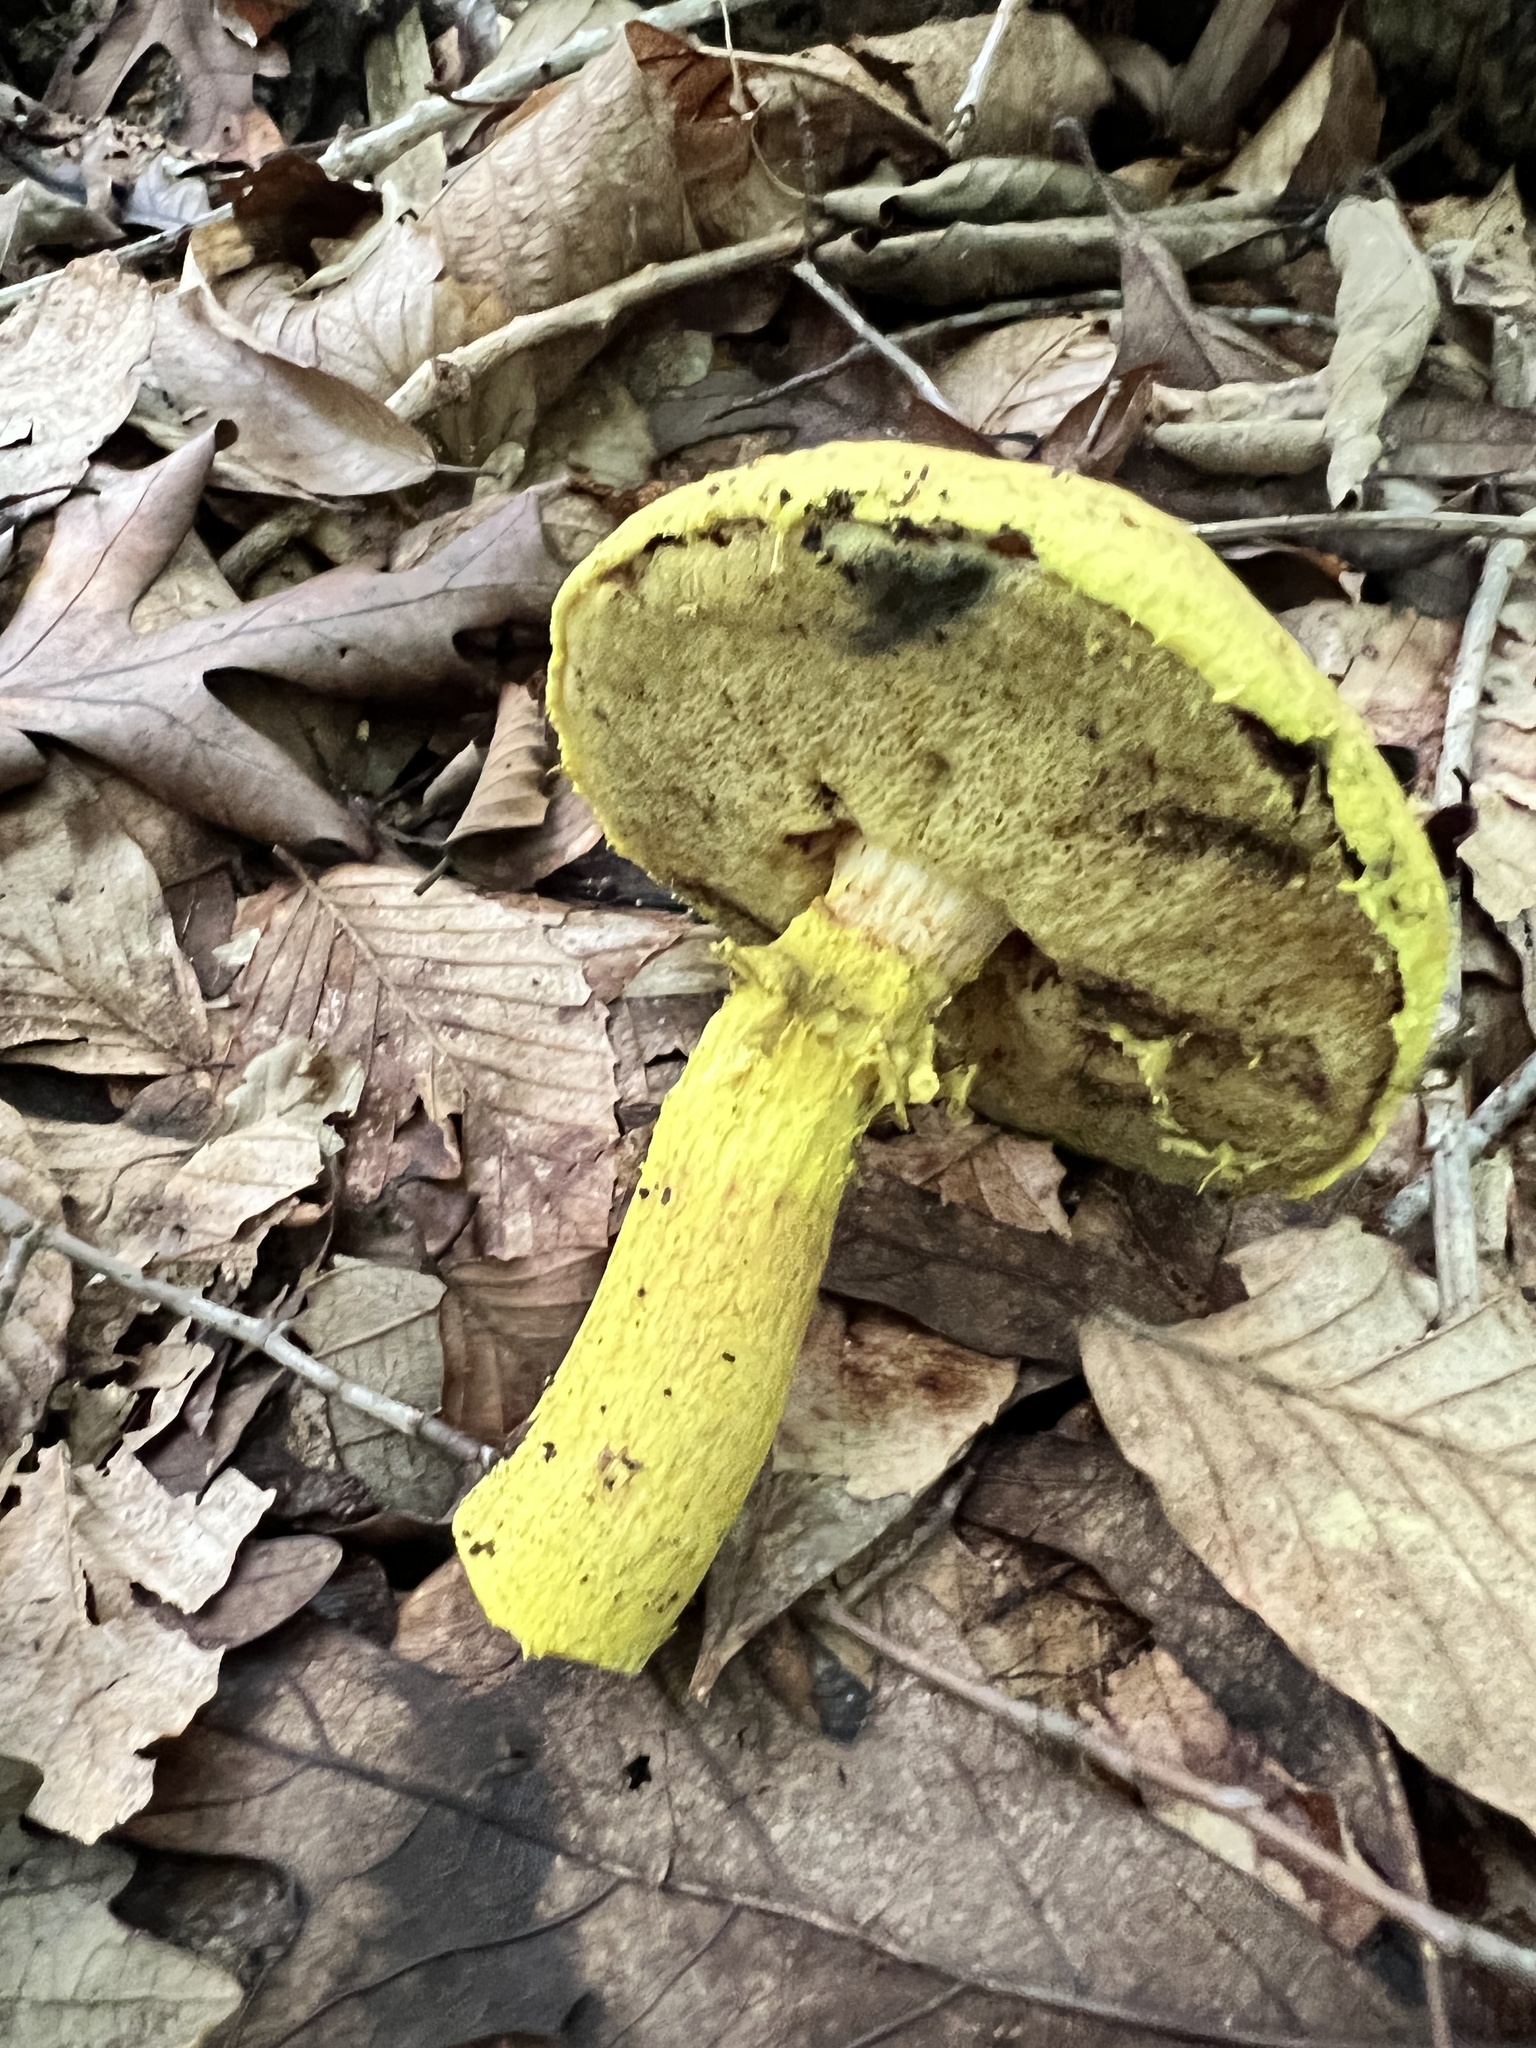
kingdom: Fungi
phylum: Basidiomycota
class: Agaricomycetes
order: Boletales
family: Boletaceae
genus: Pulveroboletus
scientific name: Pulveroboletus ravenelii
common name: Powdery sulfur bolete
